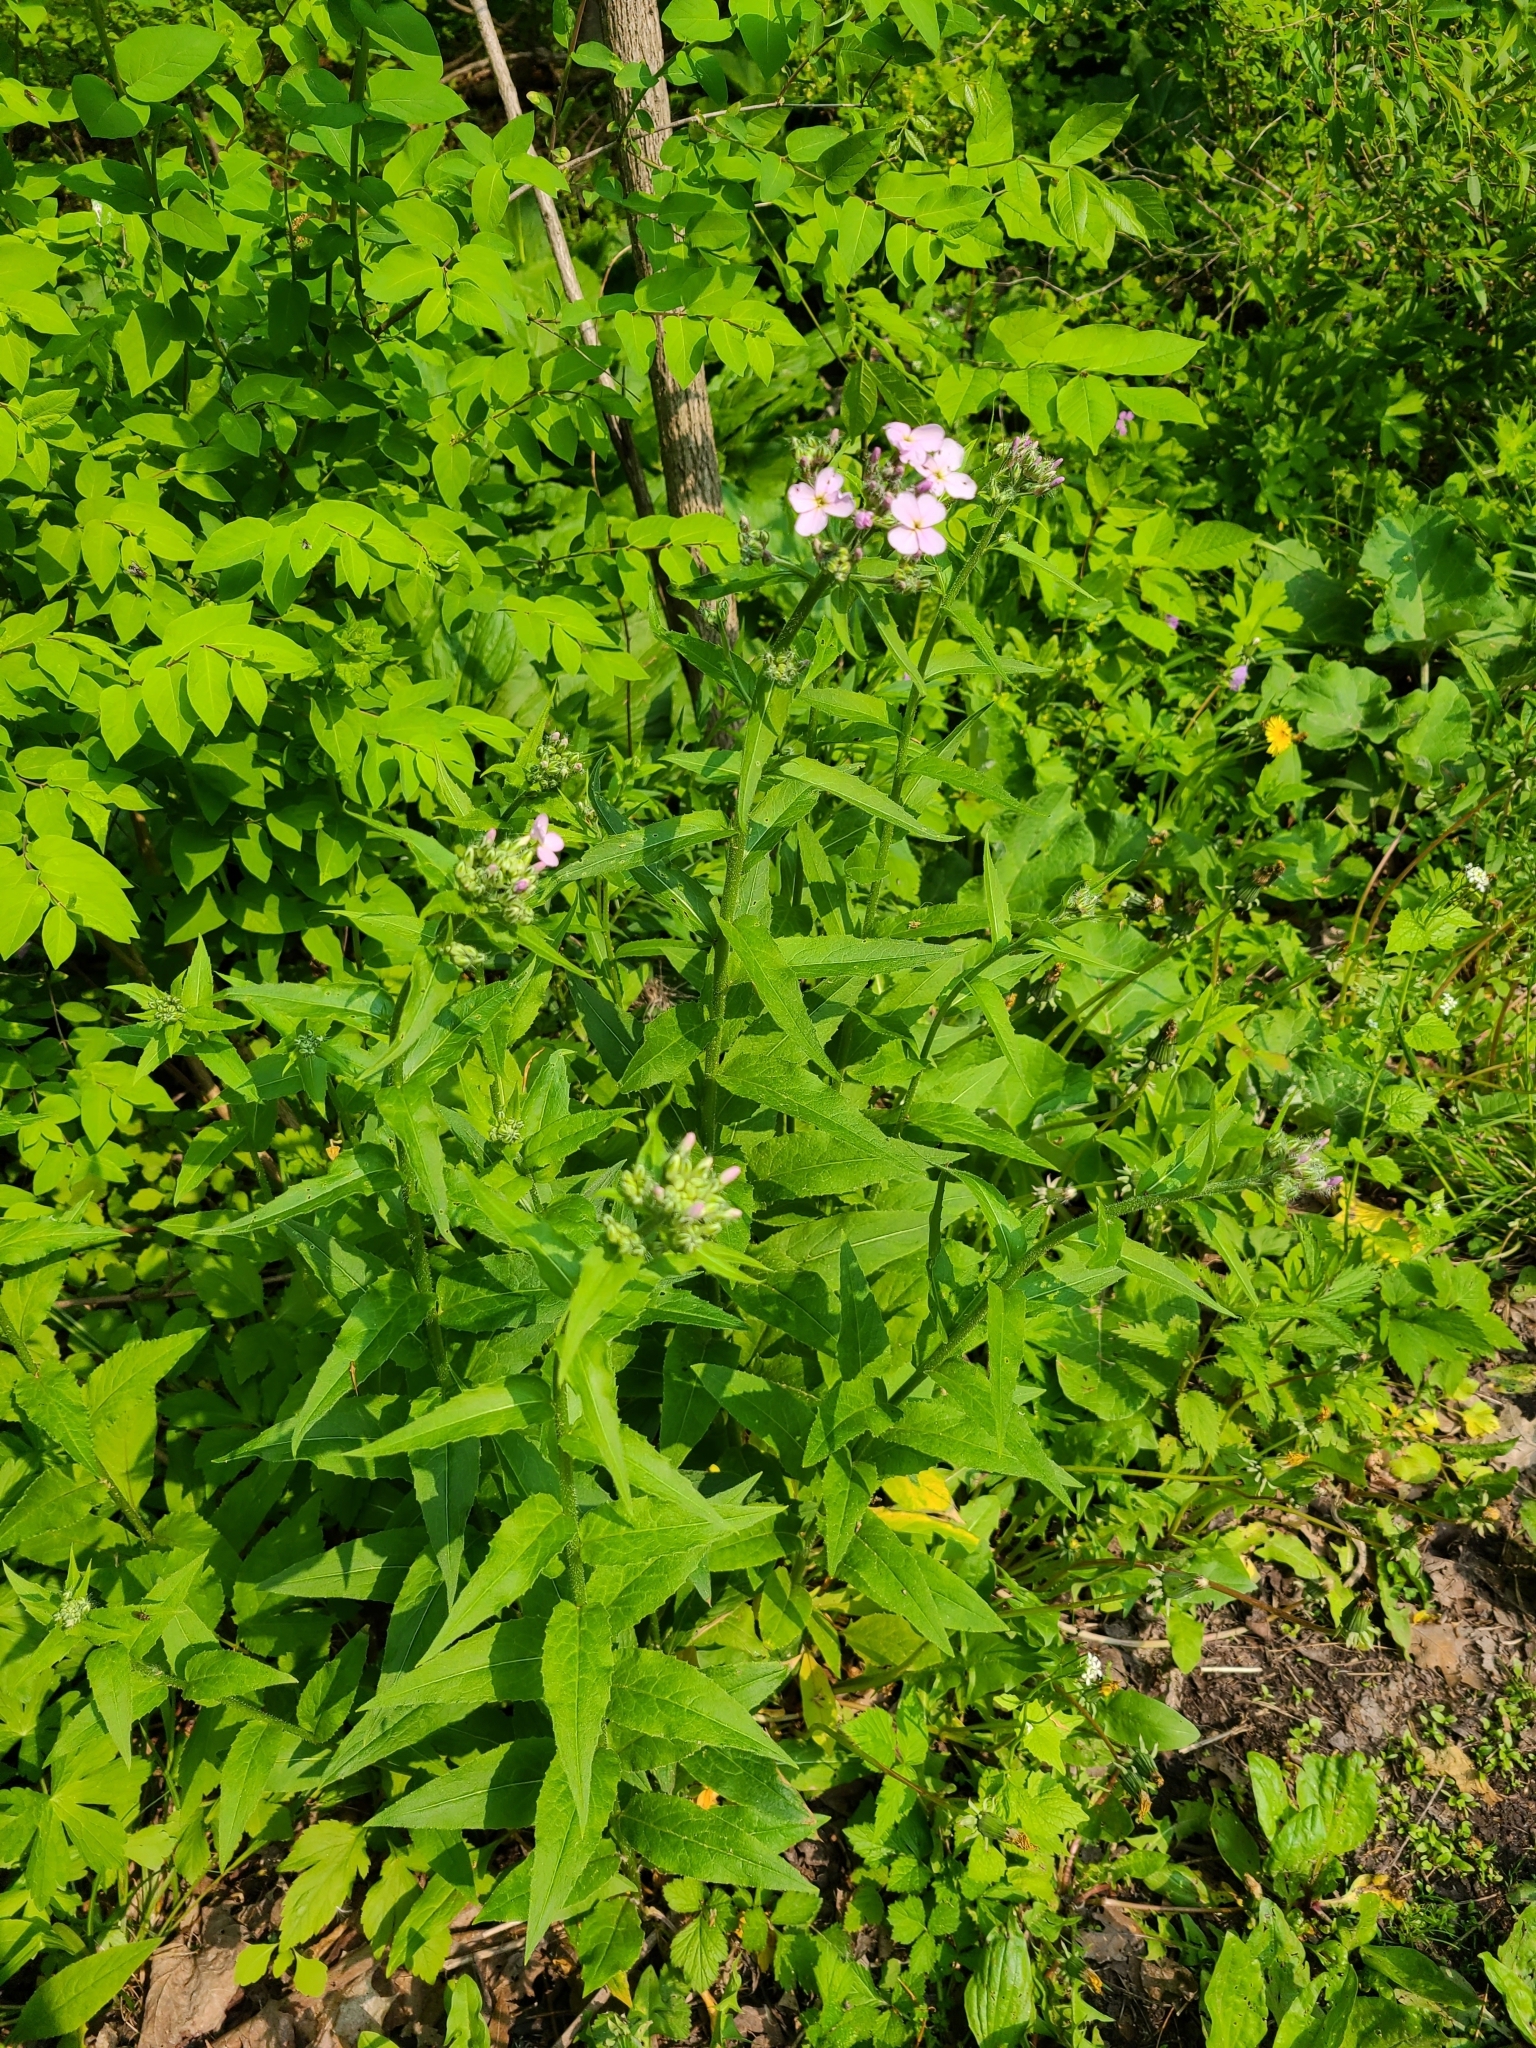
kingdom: Plantae
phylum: Tracheophyta
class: Magnoliopsida
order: Brassicales
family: Brassicaceae
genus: Hesperis
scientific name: Hesperis matronalis
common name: Dame's-violet
